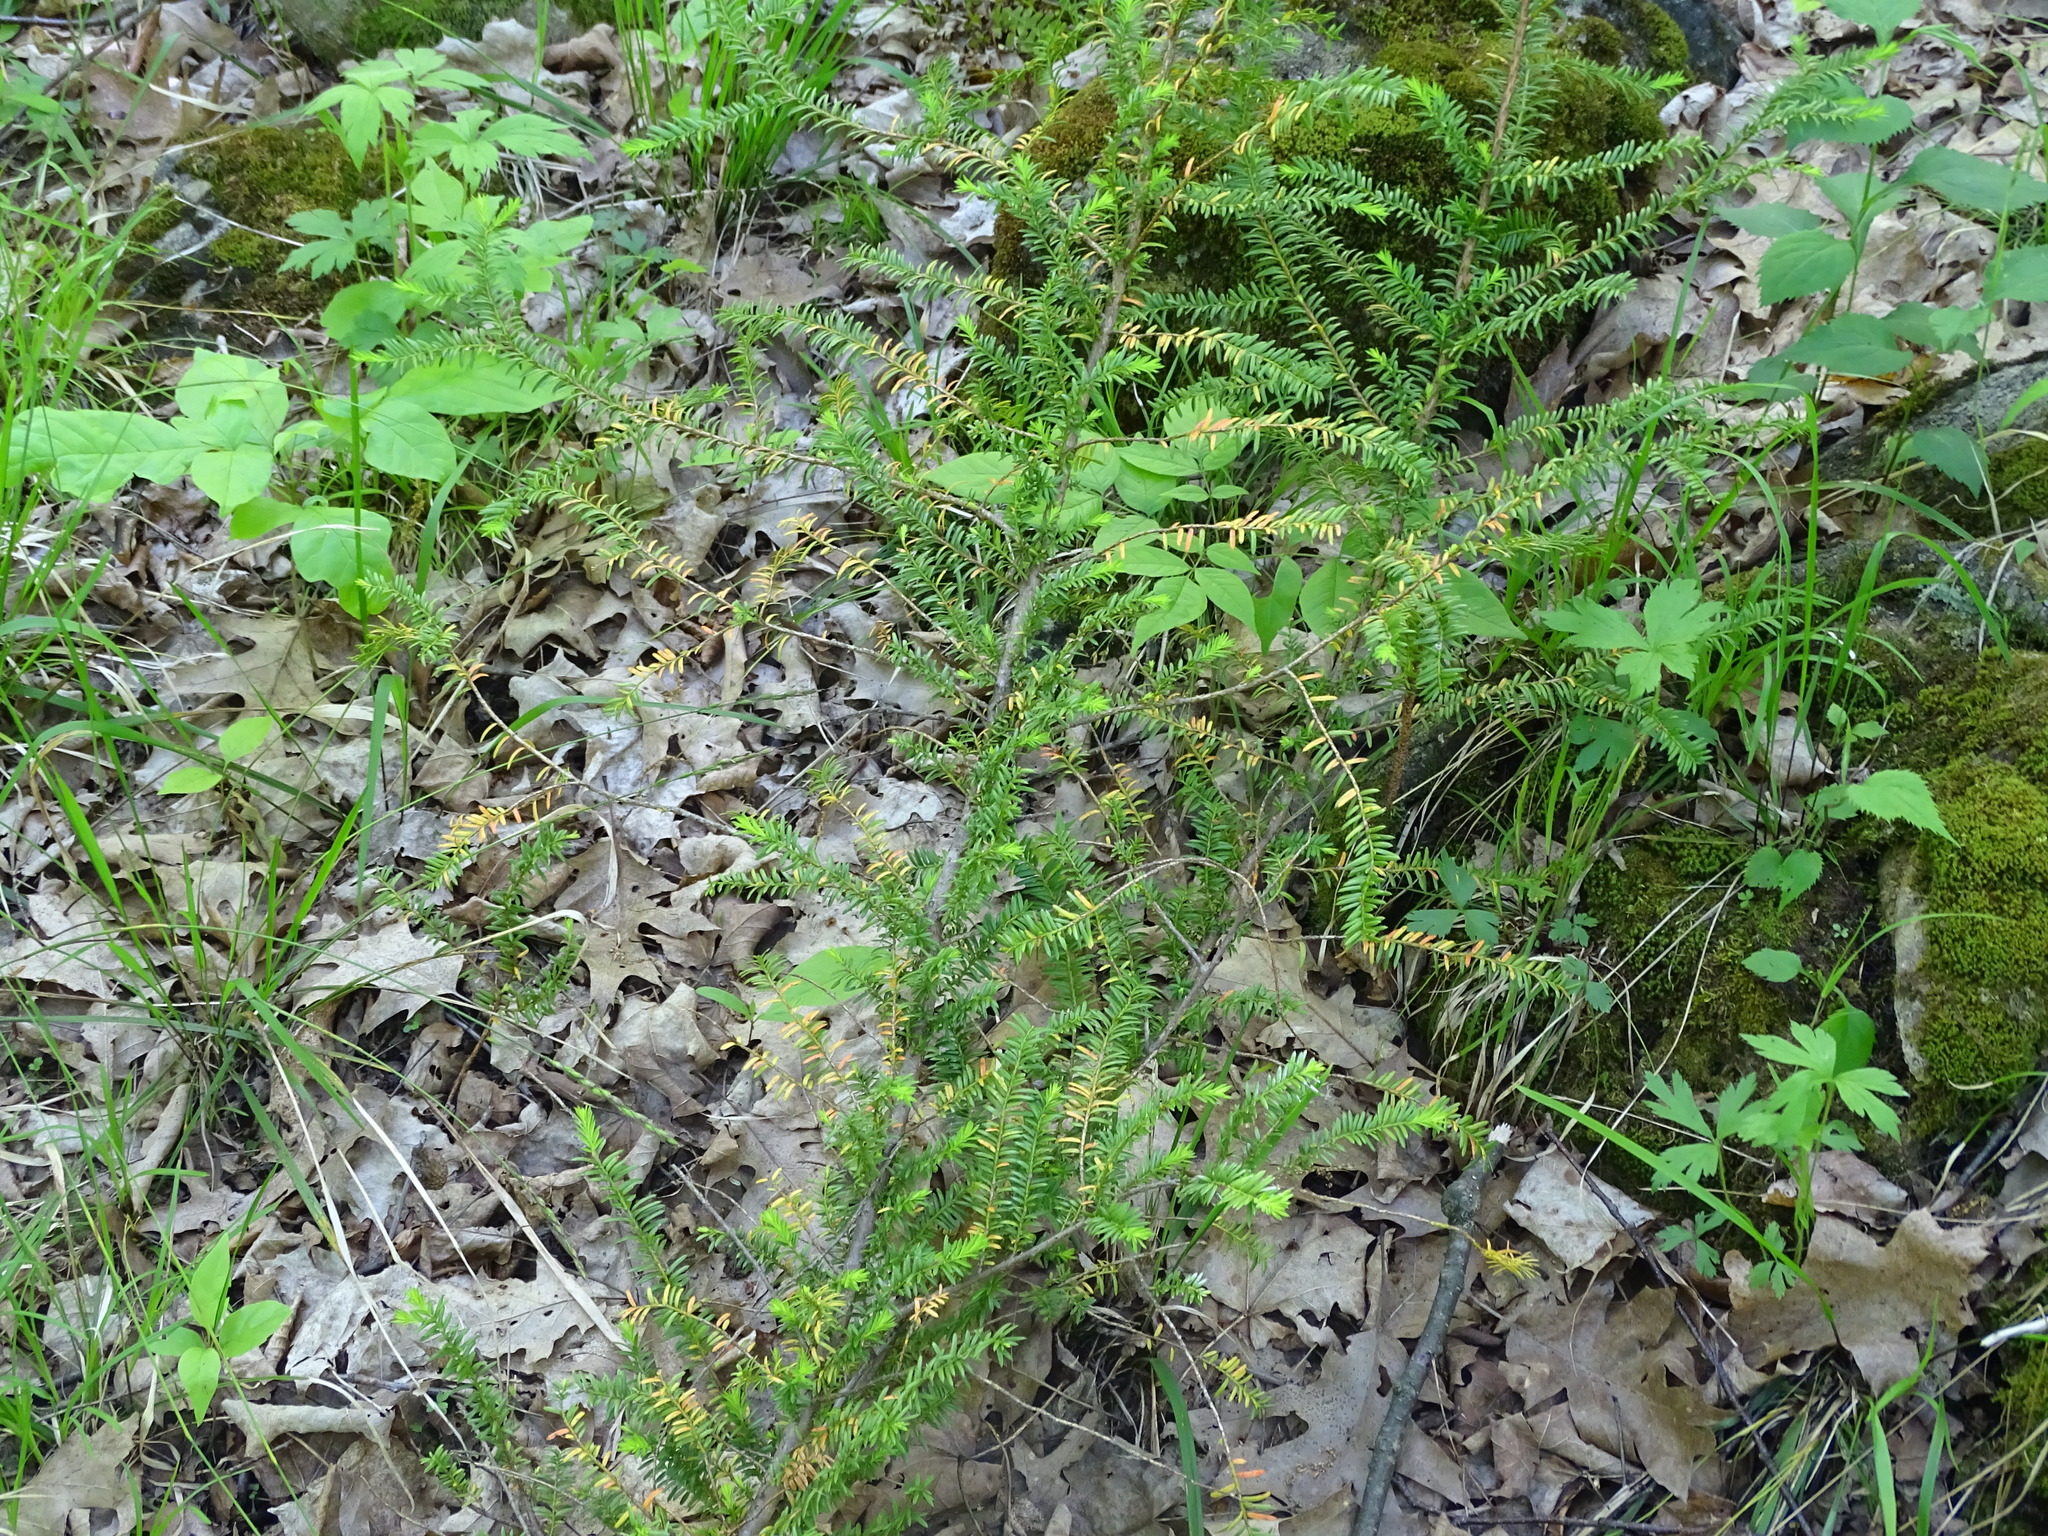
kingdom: Plantae
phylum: Tracheophyta
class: Pinopsida
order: Pinales
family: Taxaceae
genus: Taxus
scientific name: Taxus canadensis
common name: American yew
